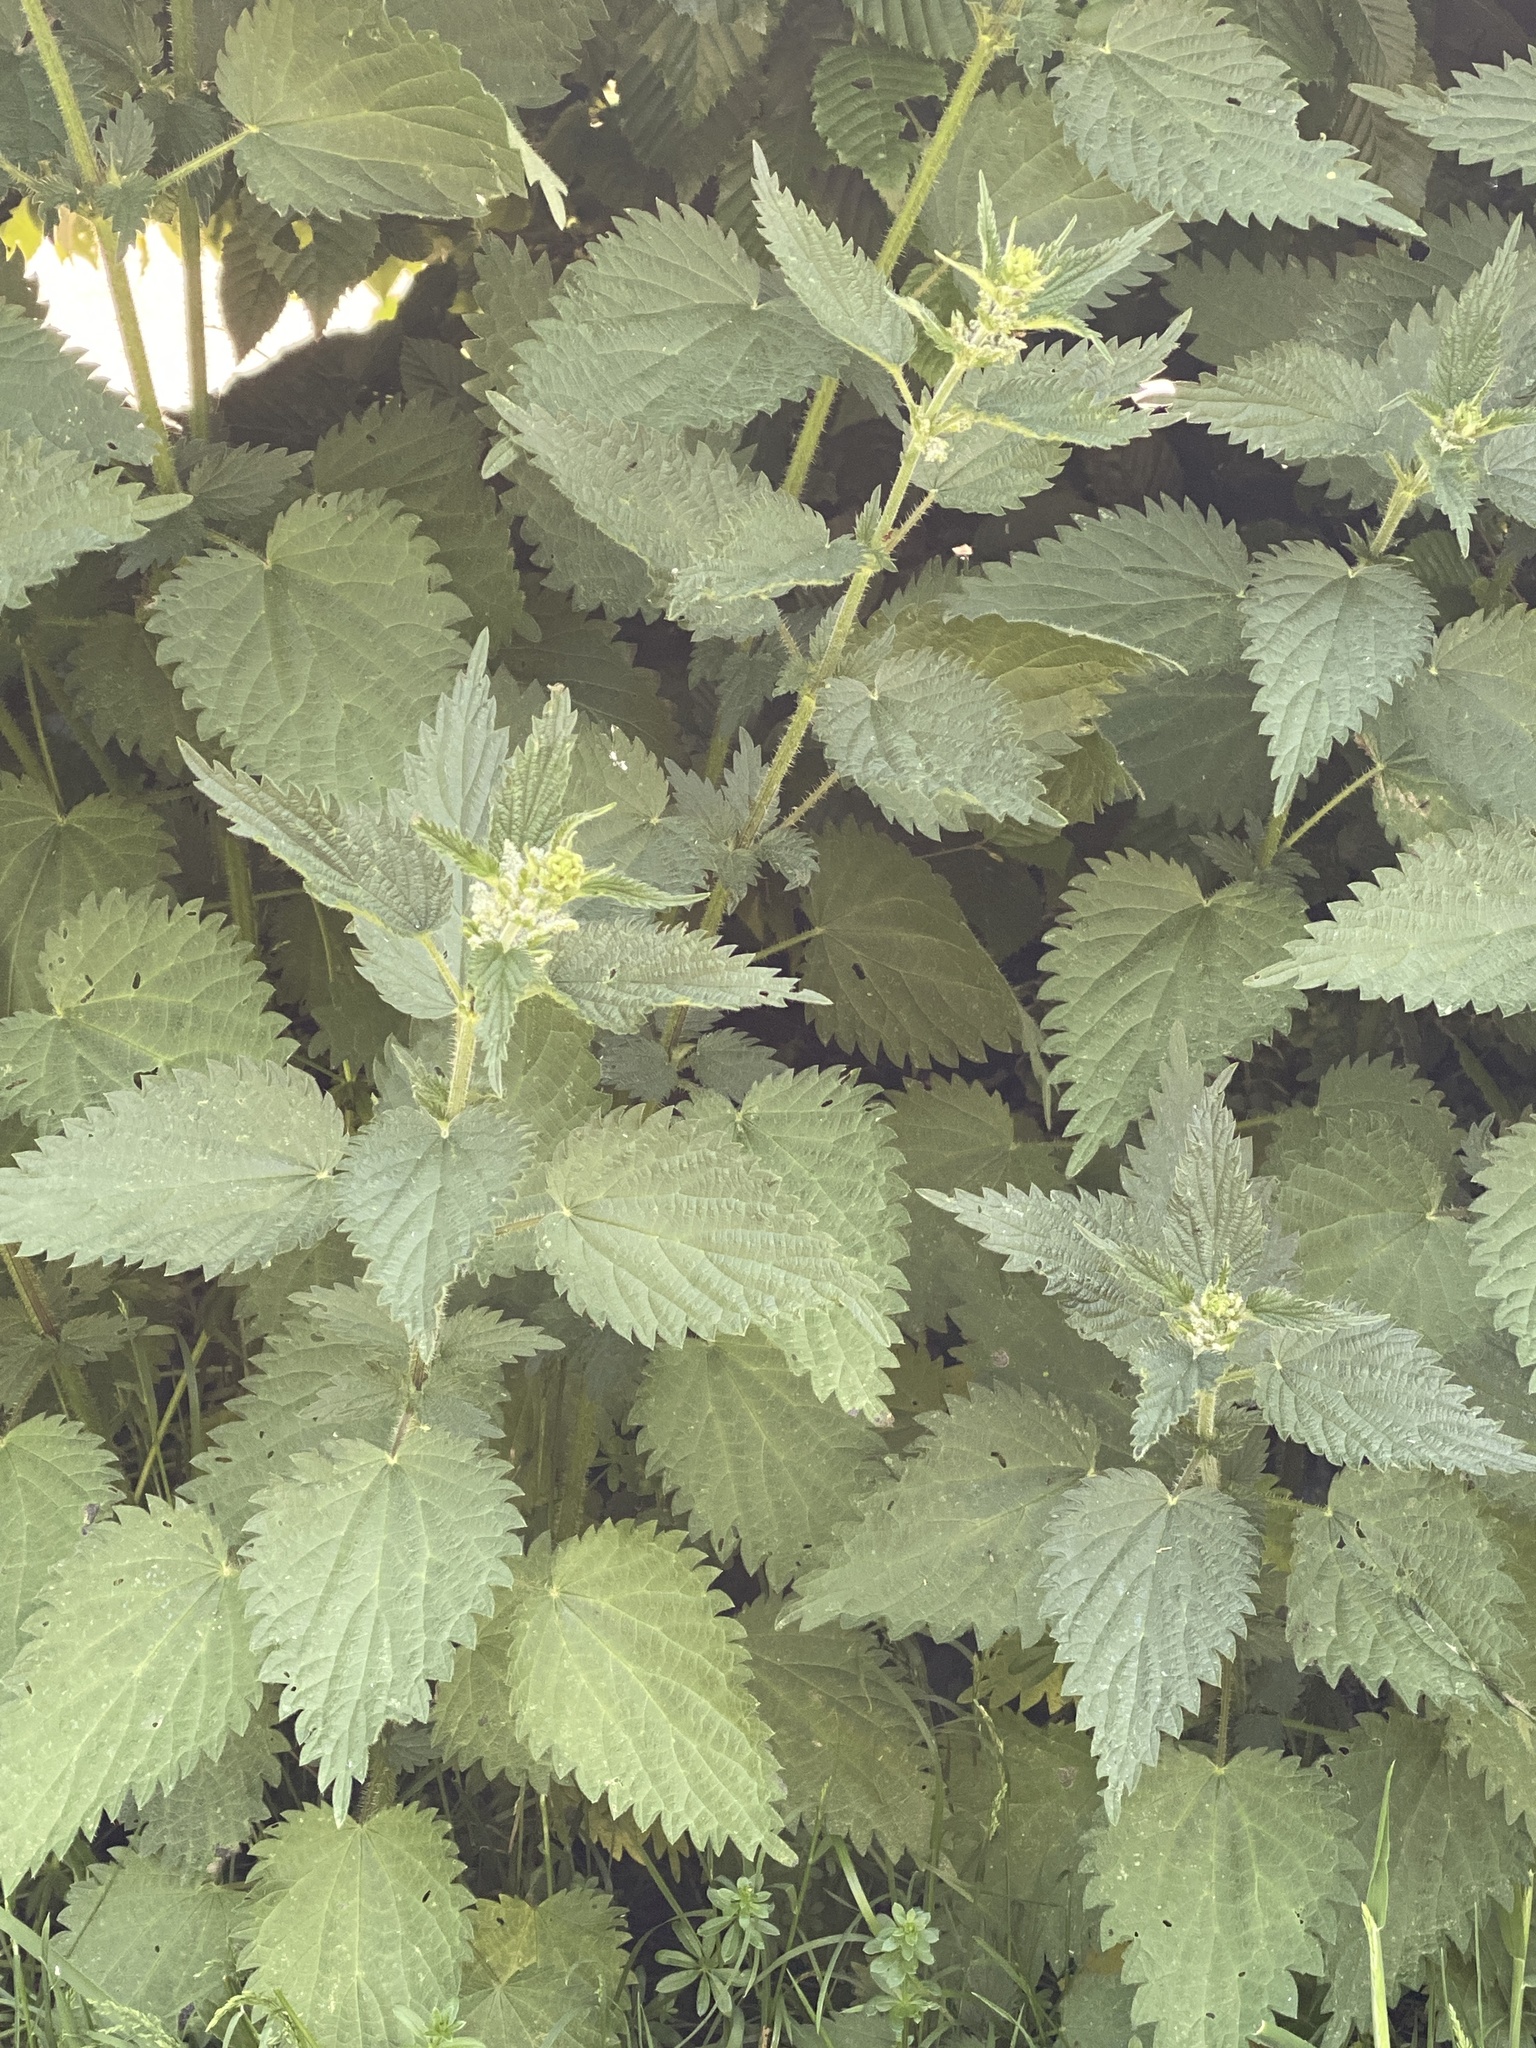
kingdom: Plantae
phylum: Tracheophyta
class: Magnoliopsida
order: Rosales
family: Urticaceae
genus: Urtica
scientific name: Urtica dioica
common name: Common nettle
